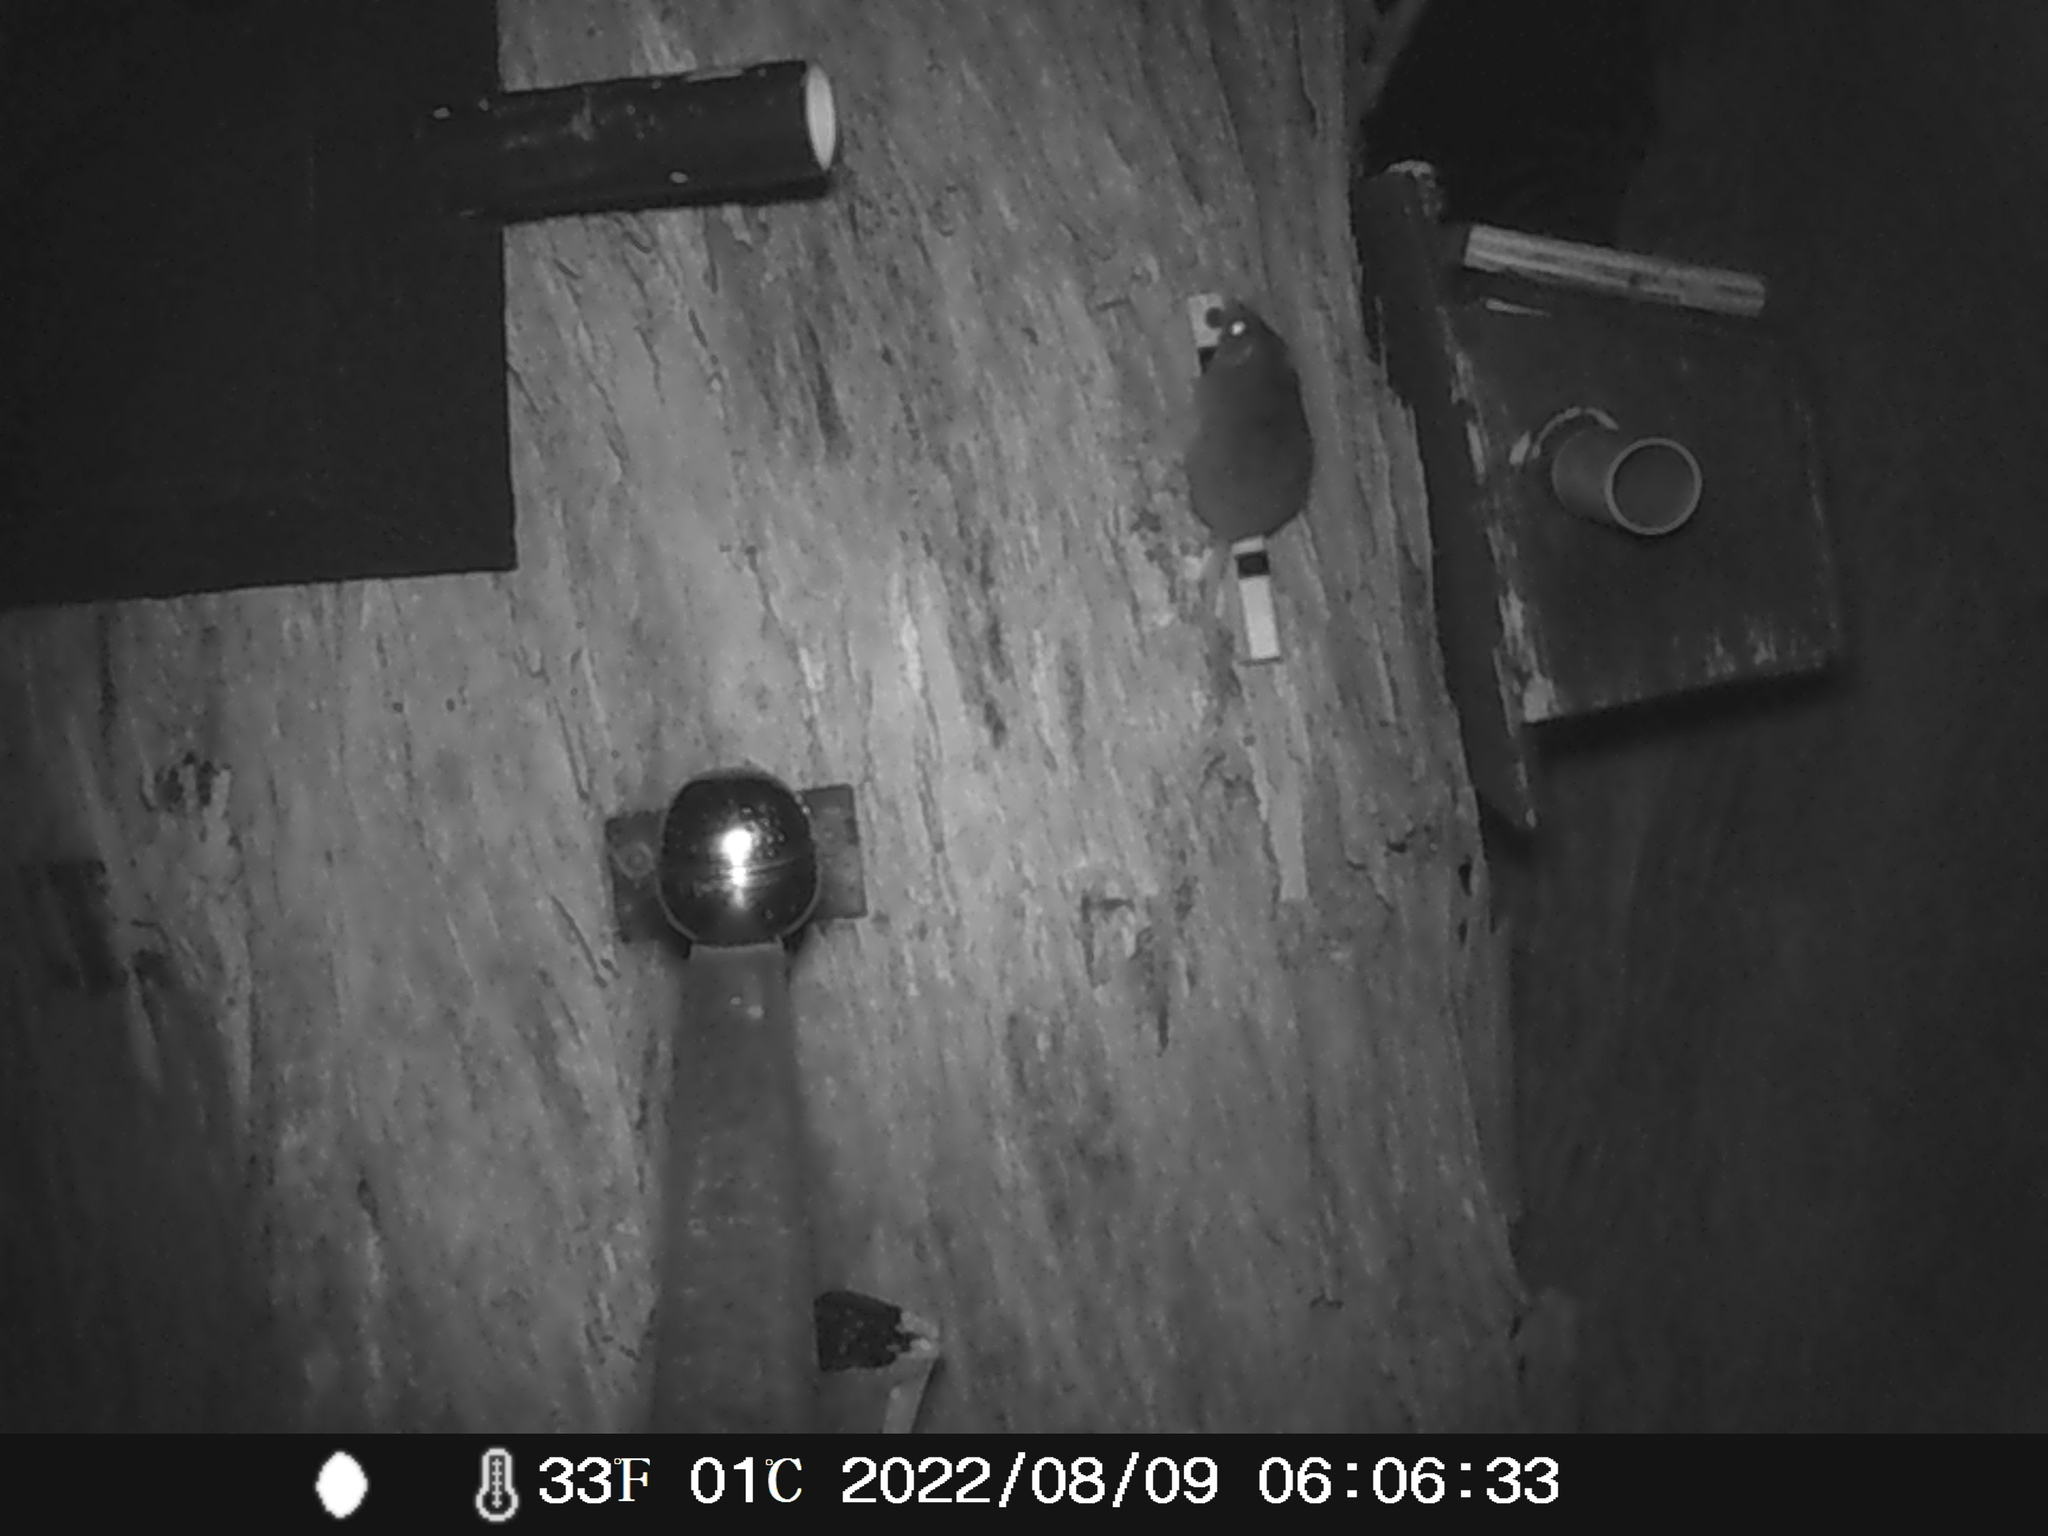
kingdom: Animalia
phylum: Chordata
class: Mammalia
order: Dasyuromorphia
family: Dasyuridae
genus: Antechinus
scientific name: Antechinus agilis
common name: Agile antechinus
